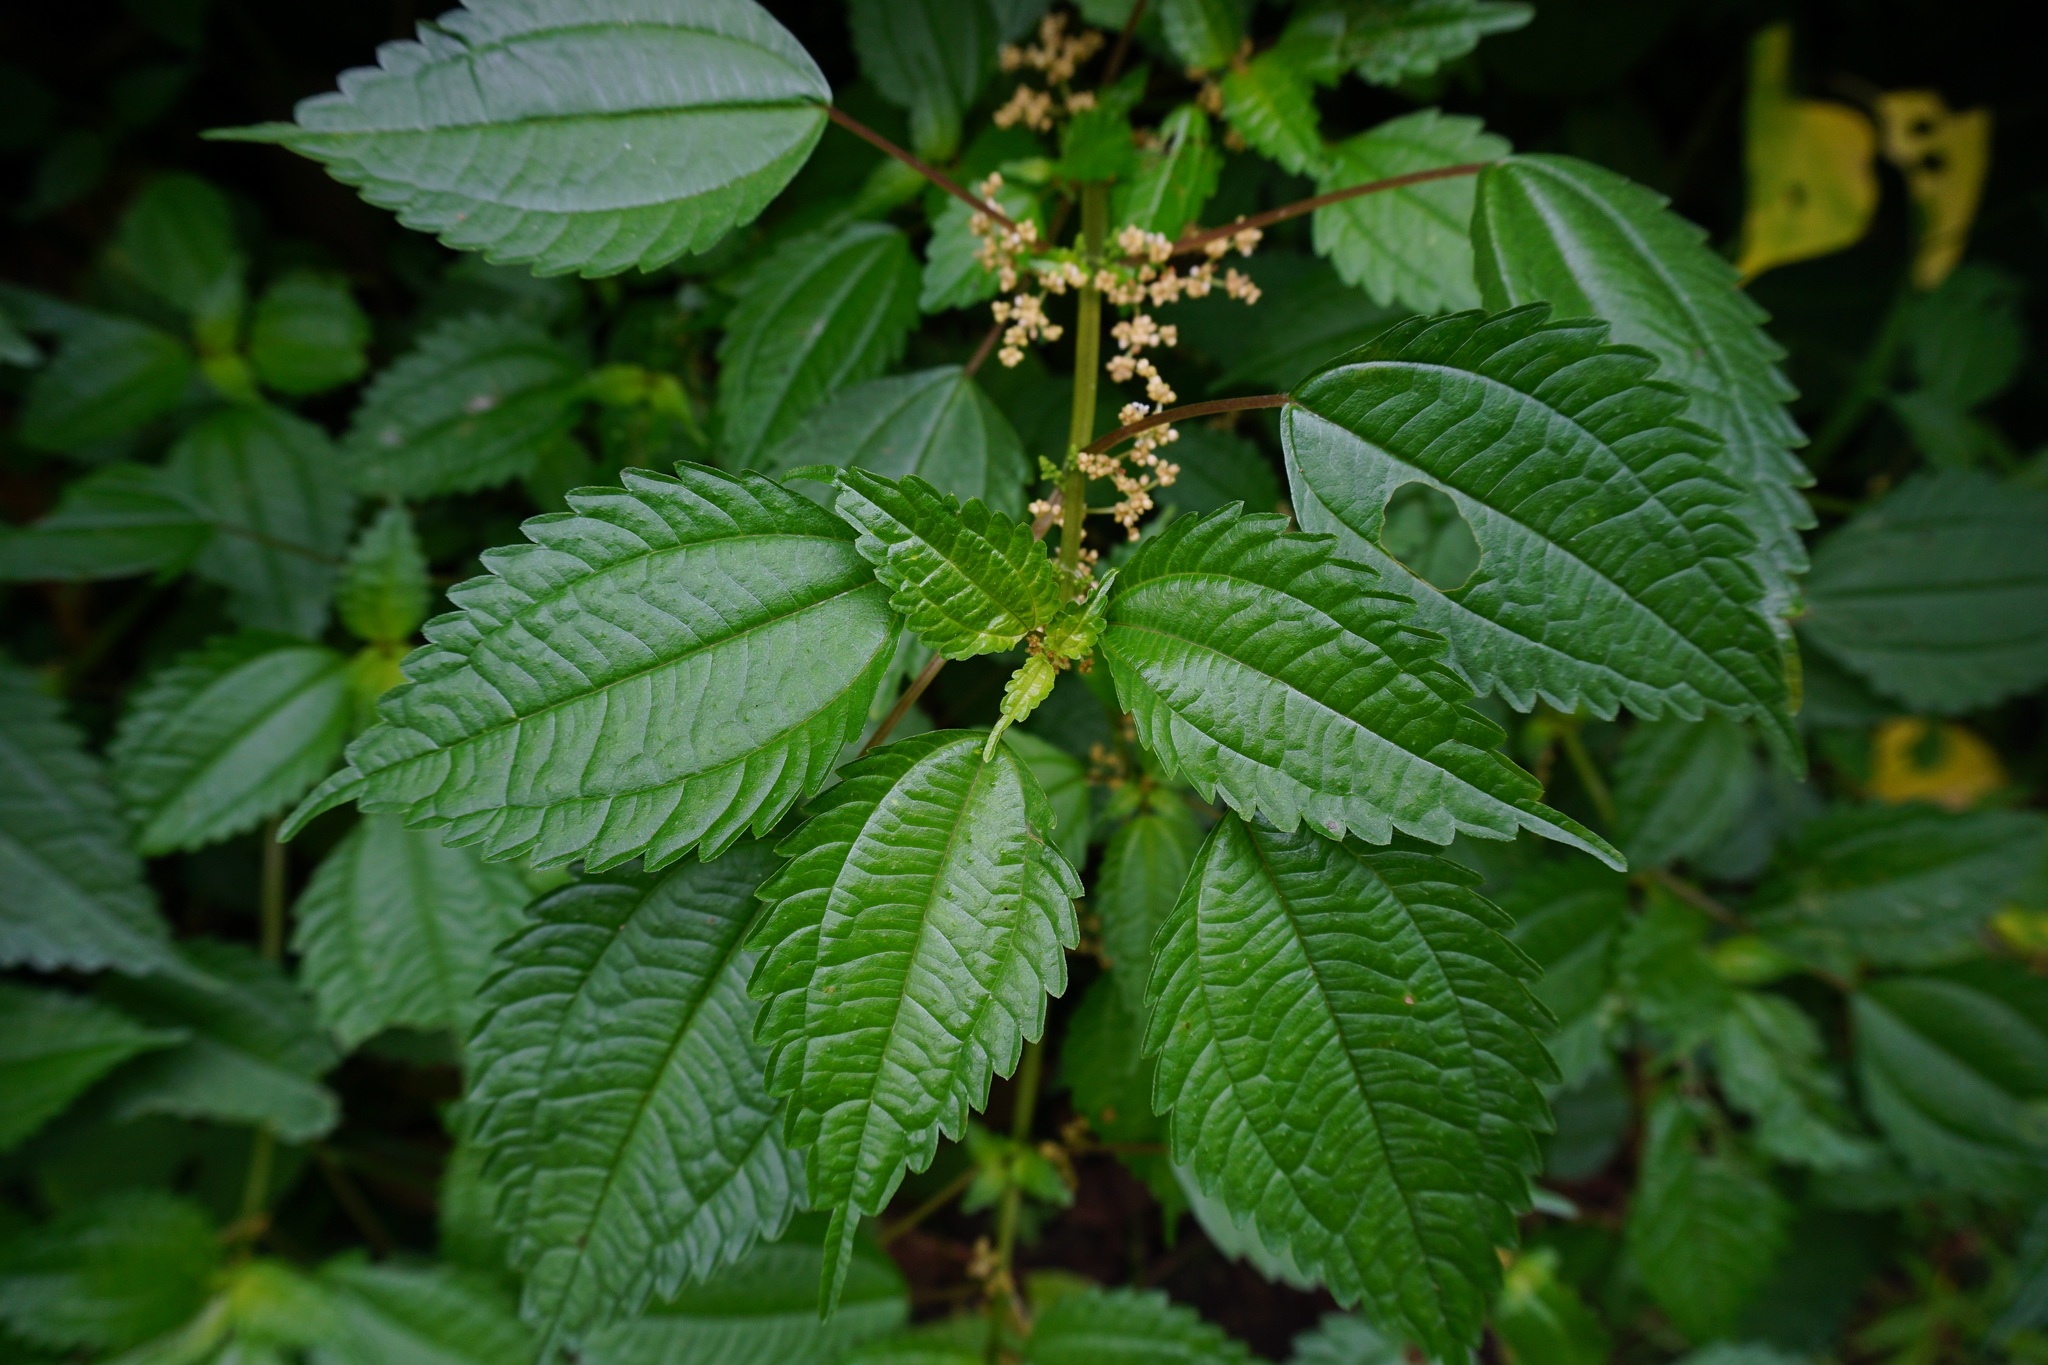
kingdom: Plantae
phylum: Tracheophyta
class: Magnoliopsida
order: Rosales
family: Urticaceae
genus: Pilea
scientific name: Pilea pumila
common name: Clearweed
